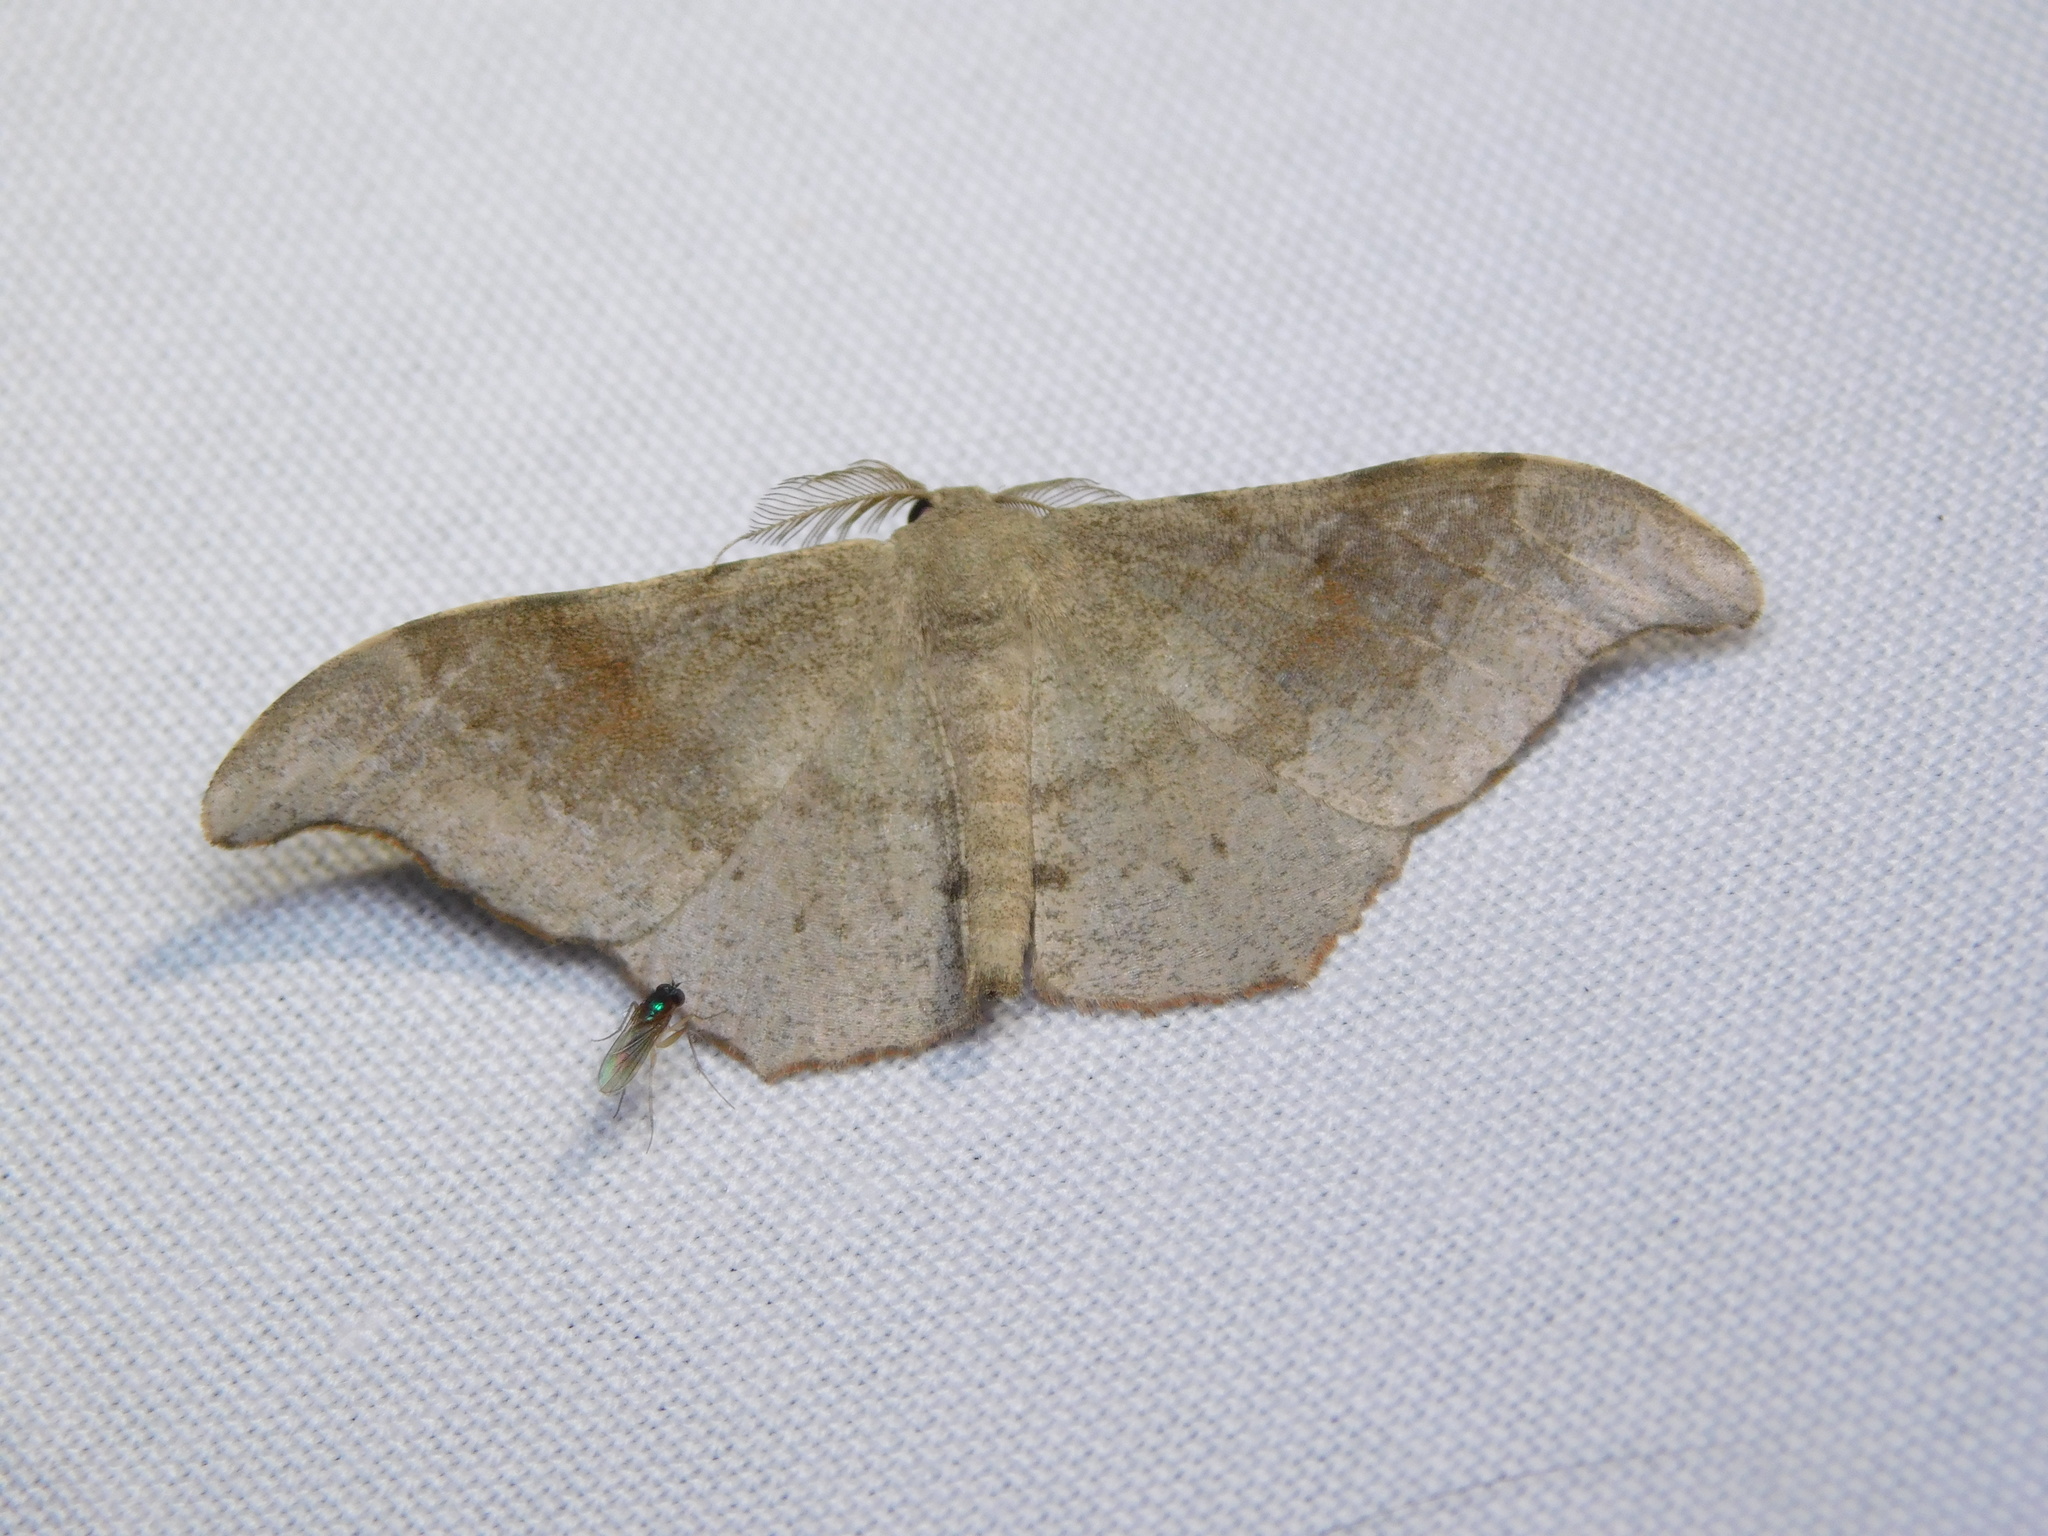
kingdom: Animalia
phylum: Arthropoda
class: Insecta
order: Lepidoptera
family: Geometridae
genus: Hyposidra
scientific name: Hyposidra talaca
